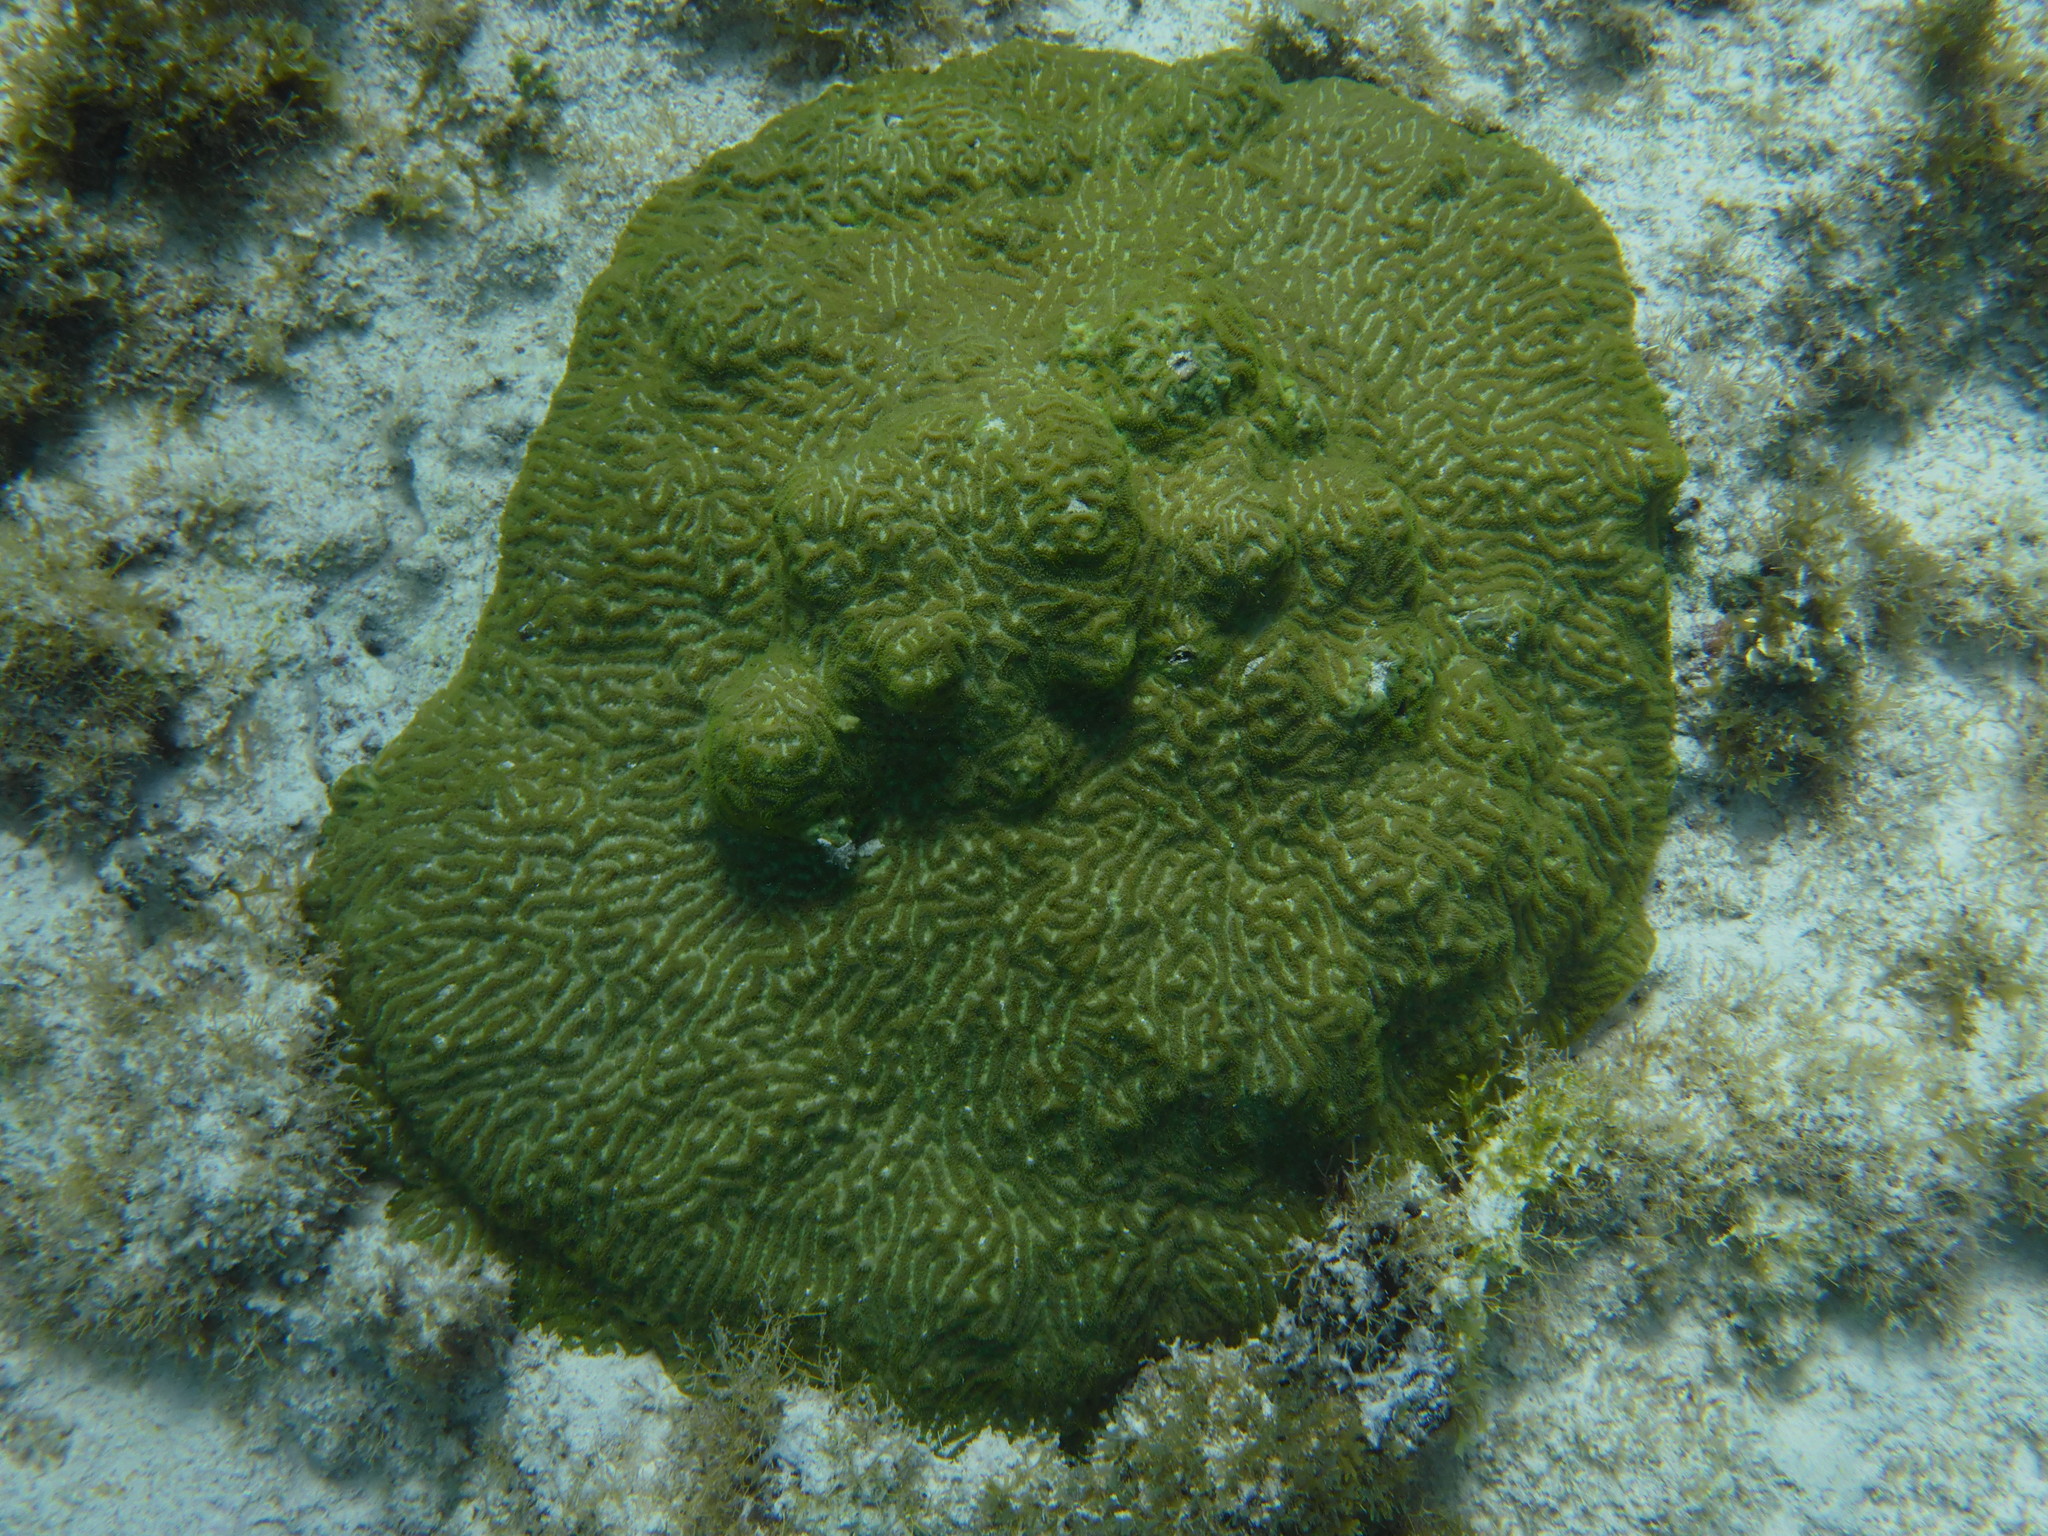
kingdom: Animalia
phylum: Cnidaria
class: Anthozoa
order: Scleractinia
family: Faviidae
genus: Pseudodiploria
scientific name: Pseudodiploria clivosa
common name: Knobby brain coral
